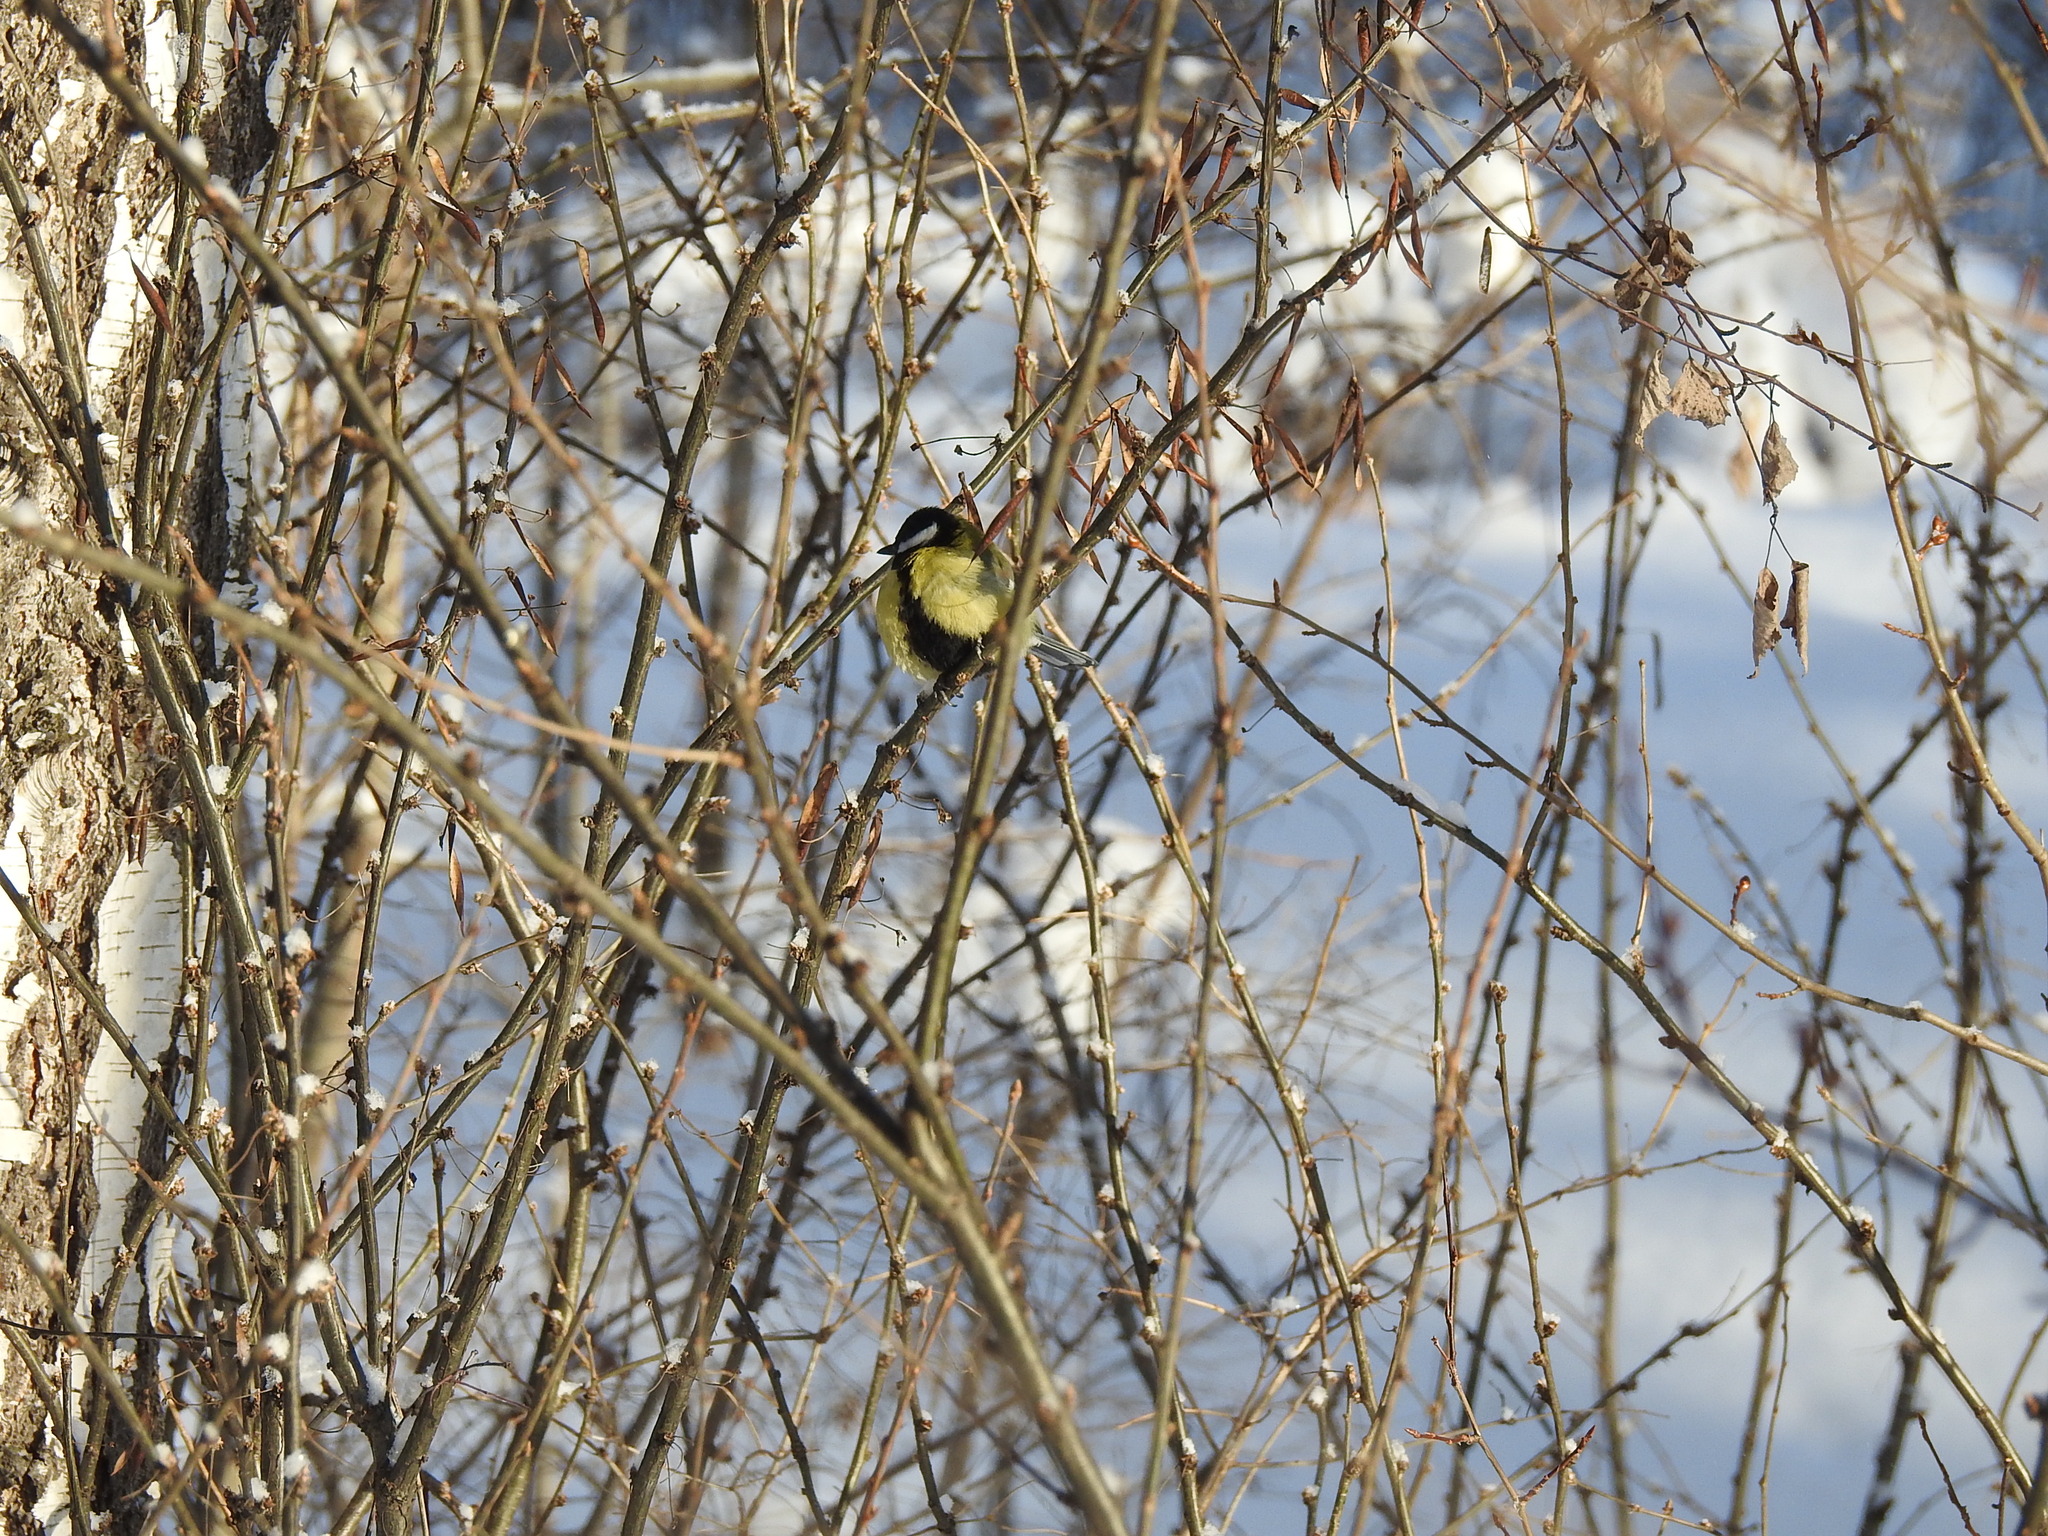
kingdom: Animalia
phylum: Chordata
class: Aves
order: Passeriformes
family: Paridae
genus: Parus
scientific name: Parus major
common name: Great tit
